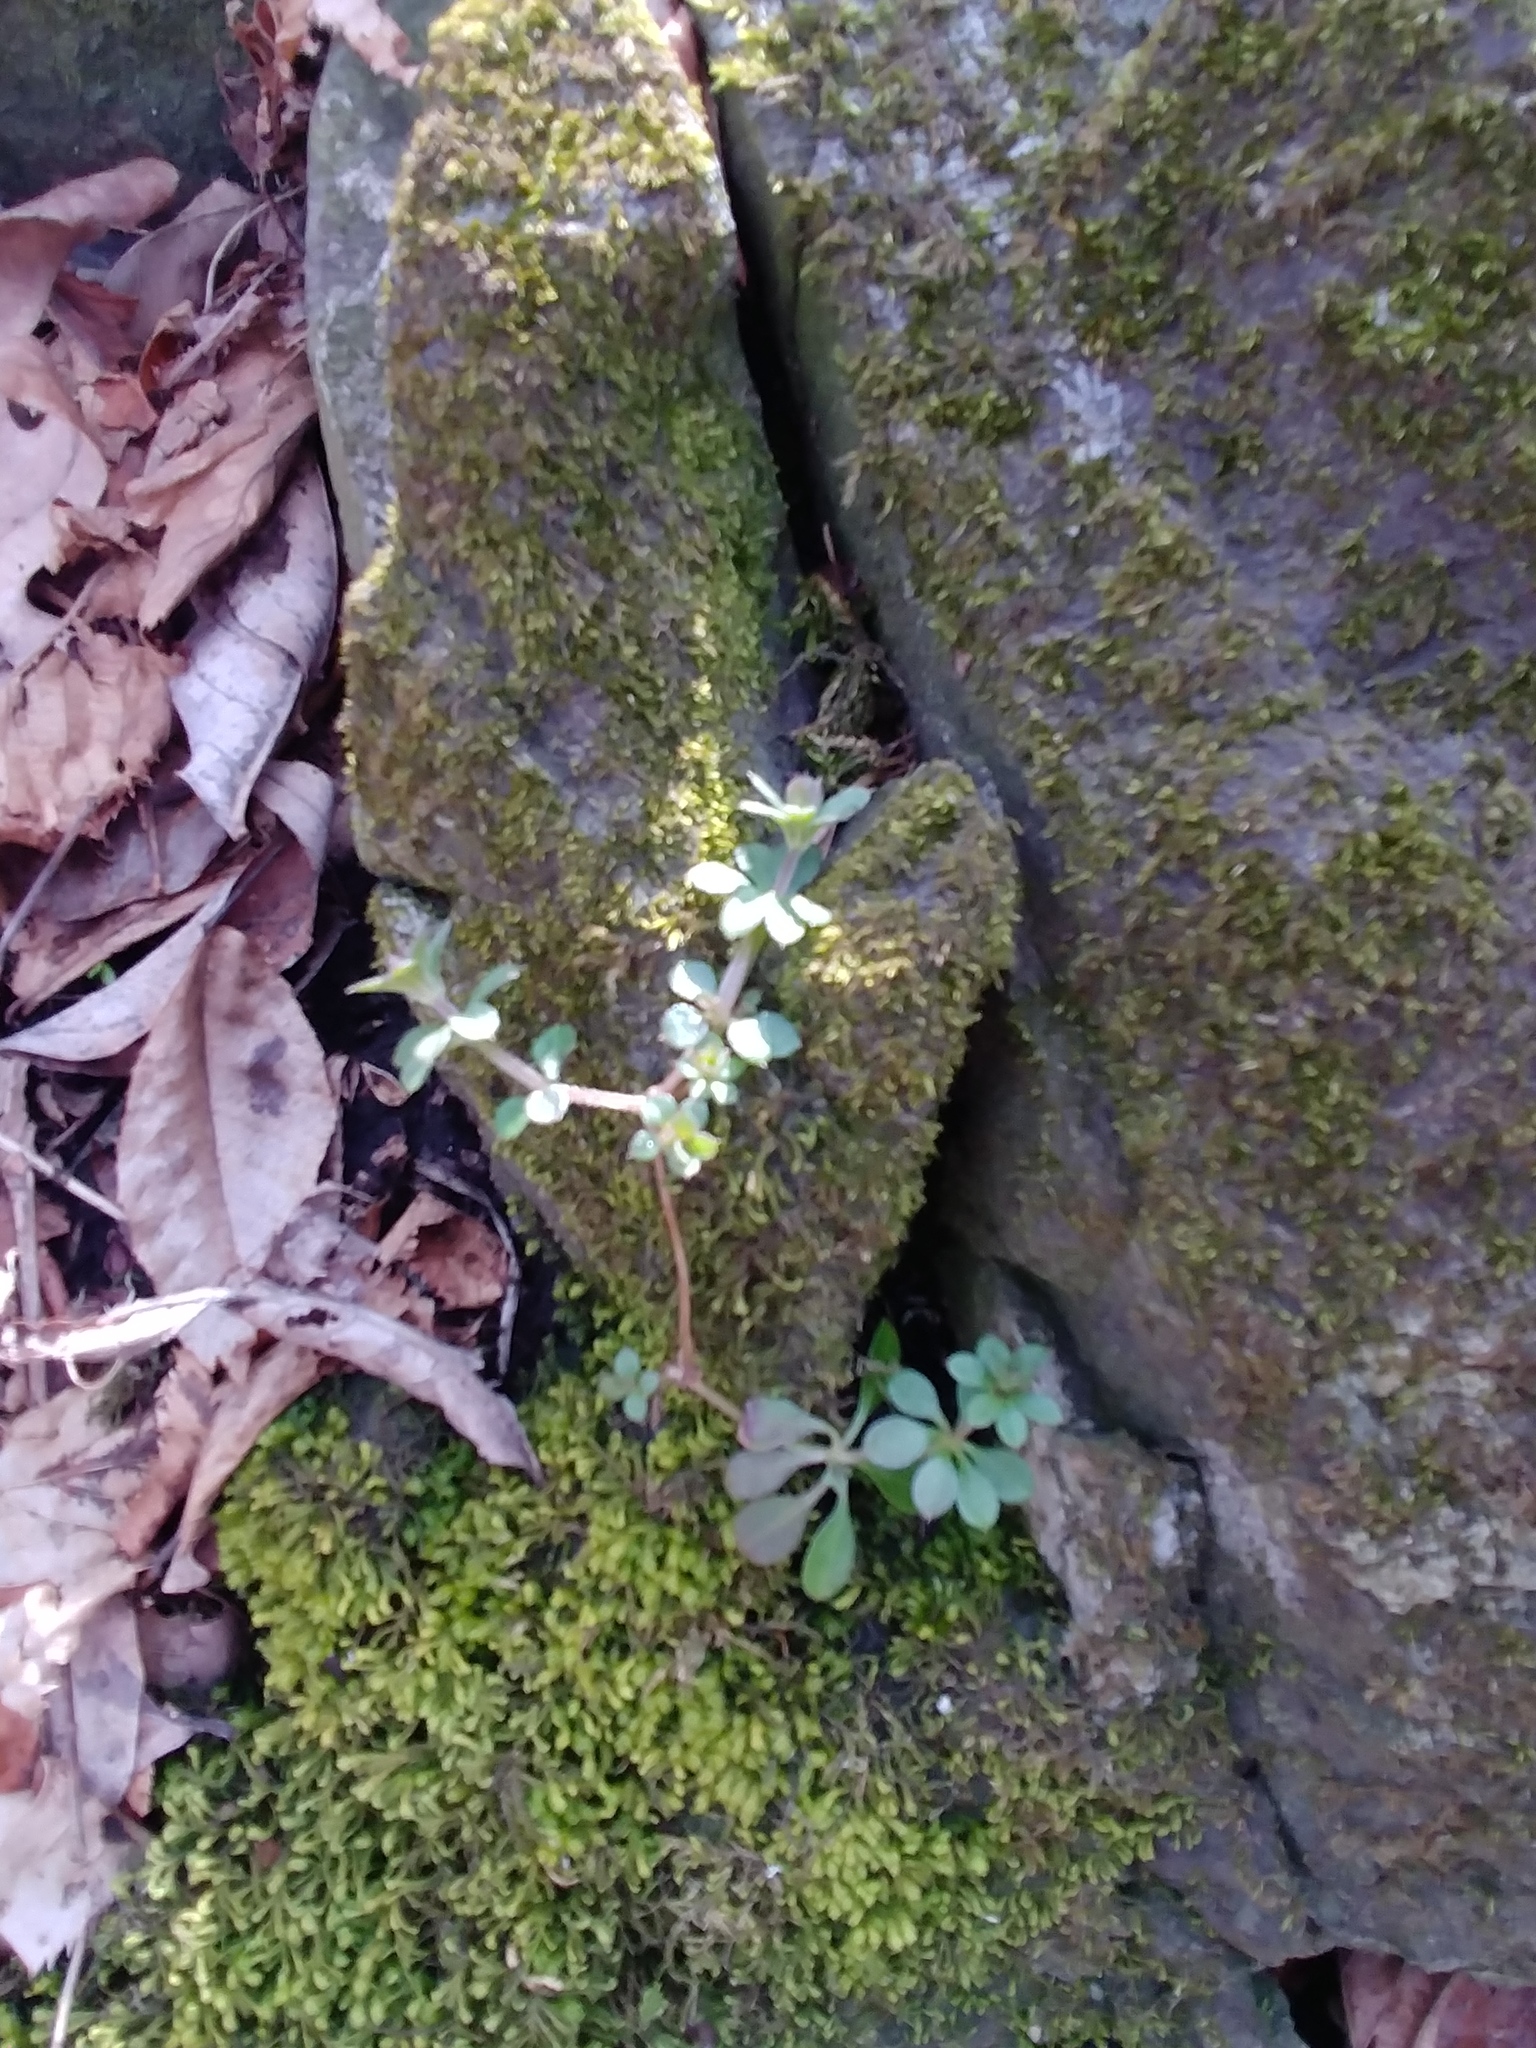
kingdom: Plantae
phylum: Tracheophyta
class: Magnoliopsida
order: Gentianales
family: Rubiaceae
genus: Galium
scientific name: Galium aparine
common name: Cleavers
